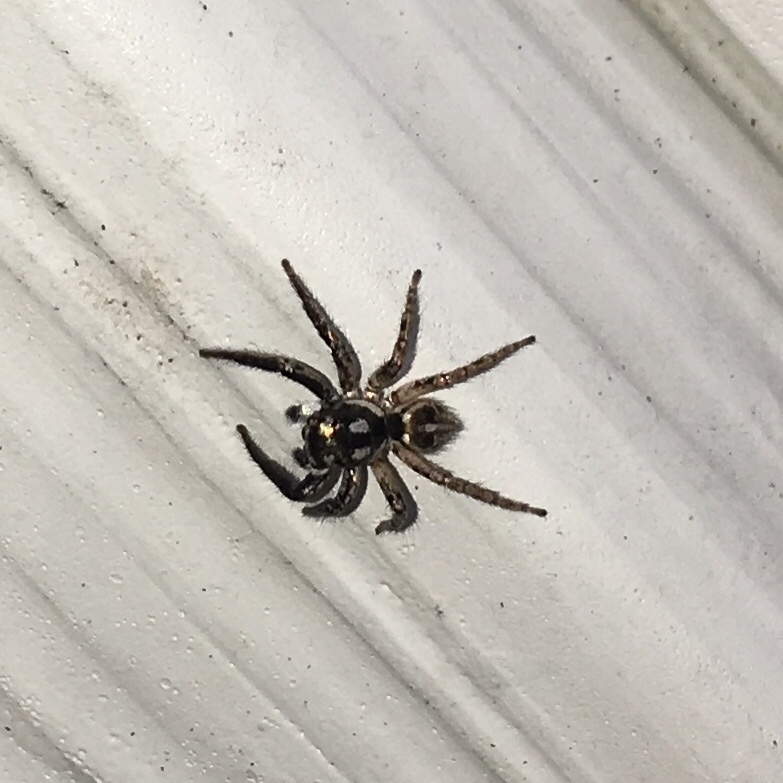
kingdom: Animalia
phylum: Arthropoda
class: Arachnida
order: Araneae
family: Salticidae
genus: Anasaitis
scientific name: Anasaitis canosa
